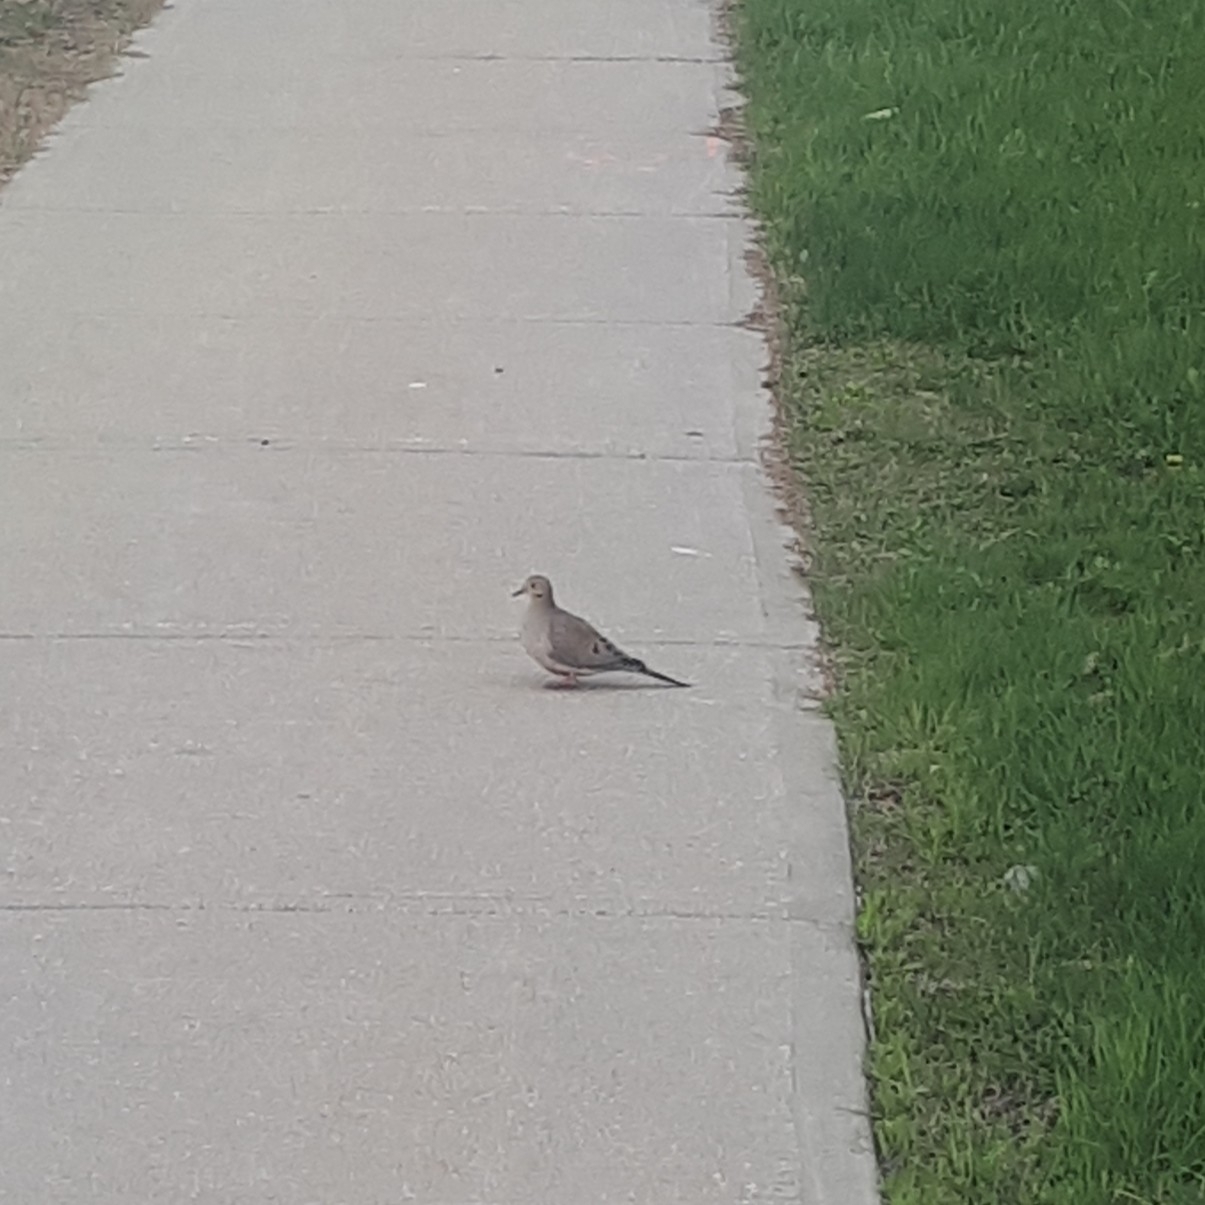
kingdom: Animalia
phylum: Chordata
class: Aves
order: Columbiformes
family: Columbidae
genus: Zenaida
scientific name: Zenaida macroura
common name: Mourning dove
